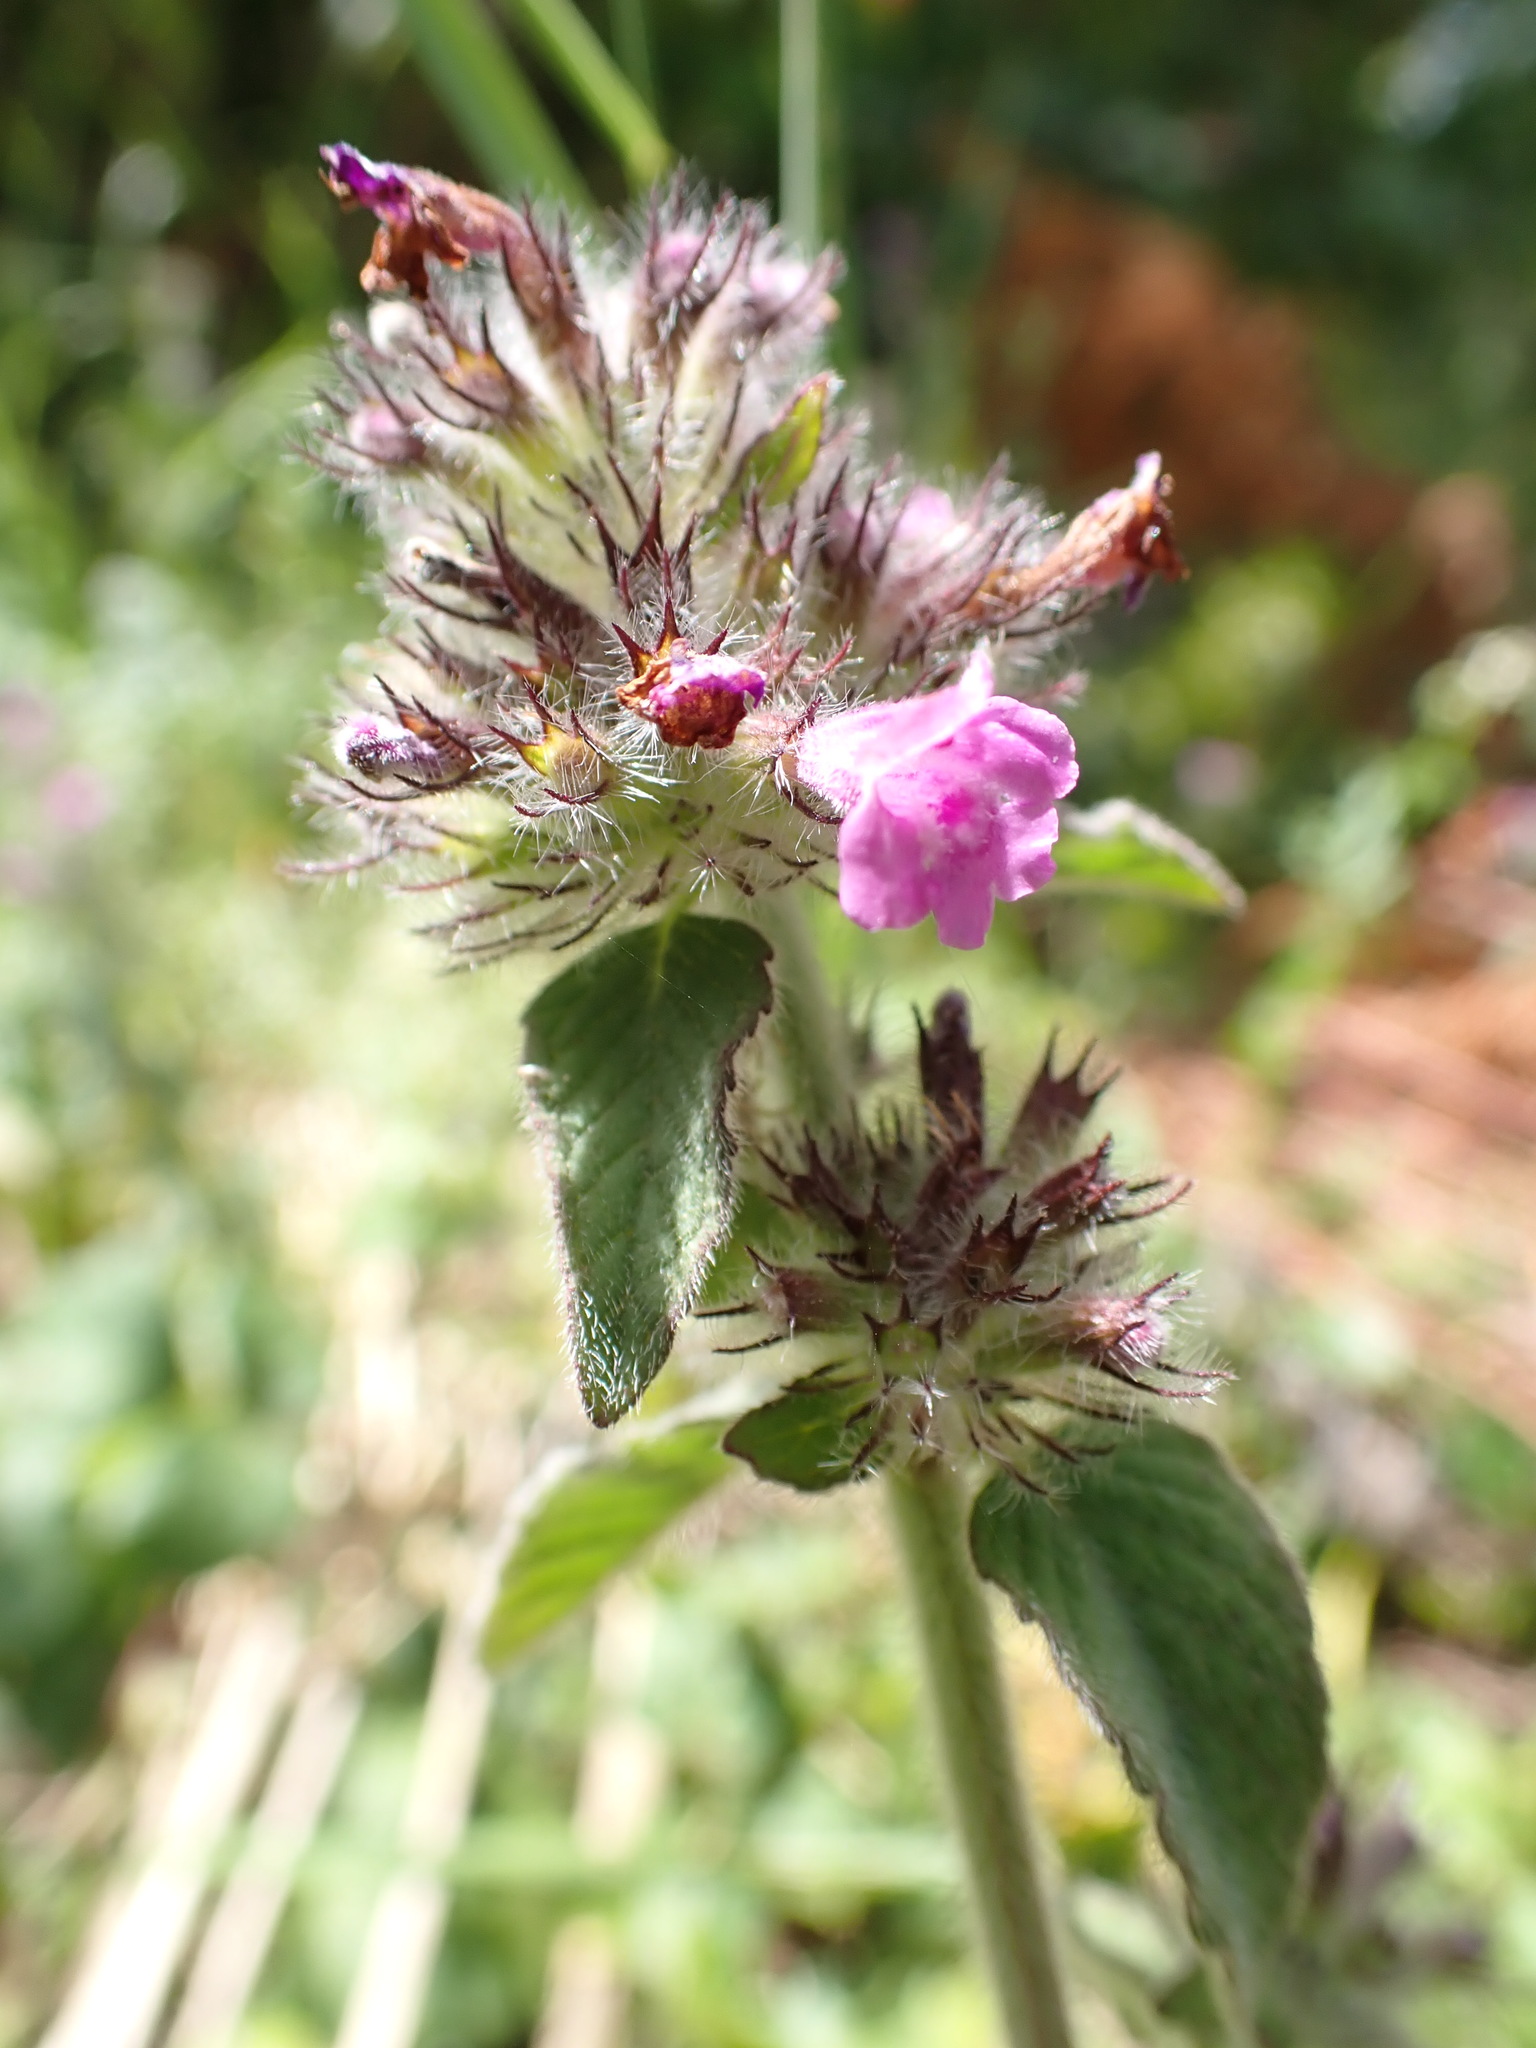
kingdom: Plantae
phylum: Tracheophyta
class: Magnoliopsida
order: Lamiales
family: Lamiaceae
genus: Clinopodium
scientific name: Clinopodium vulgare
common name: Wild basil
